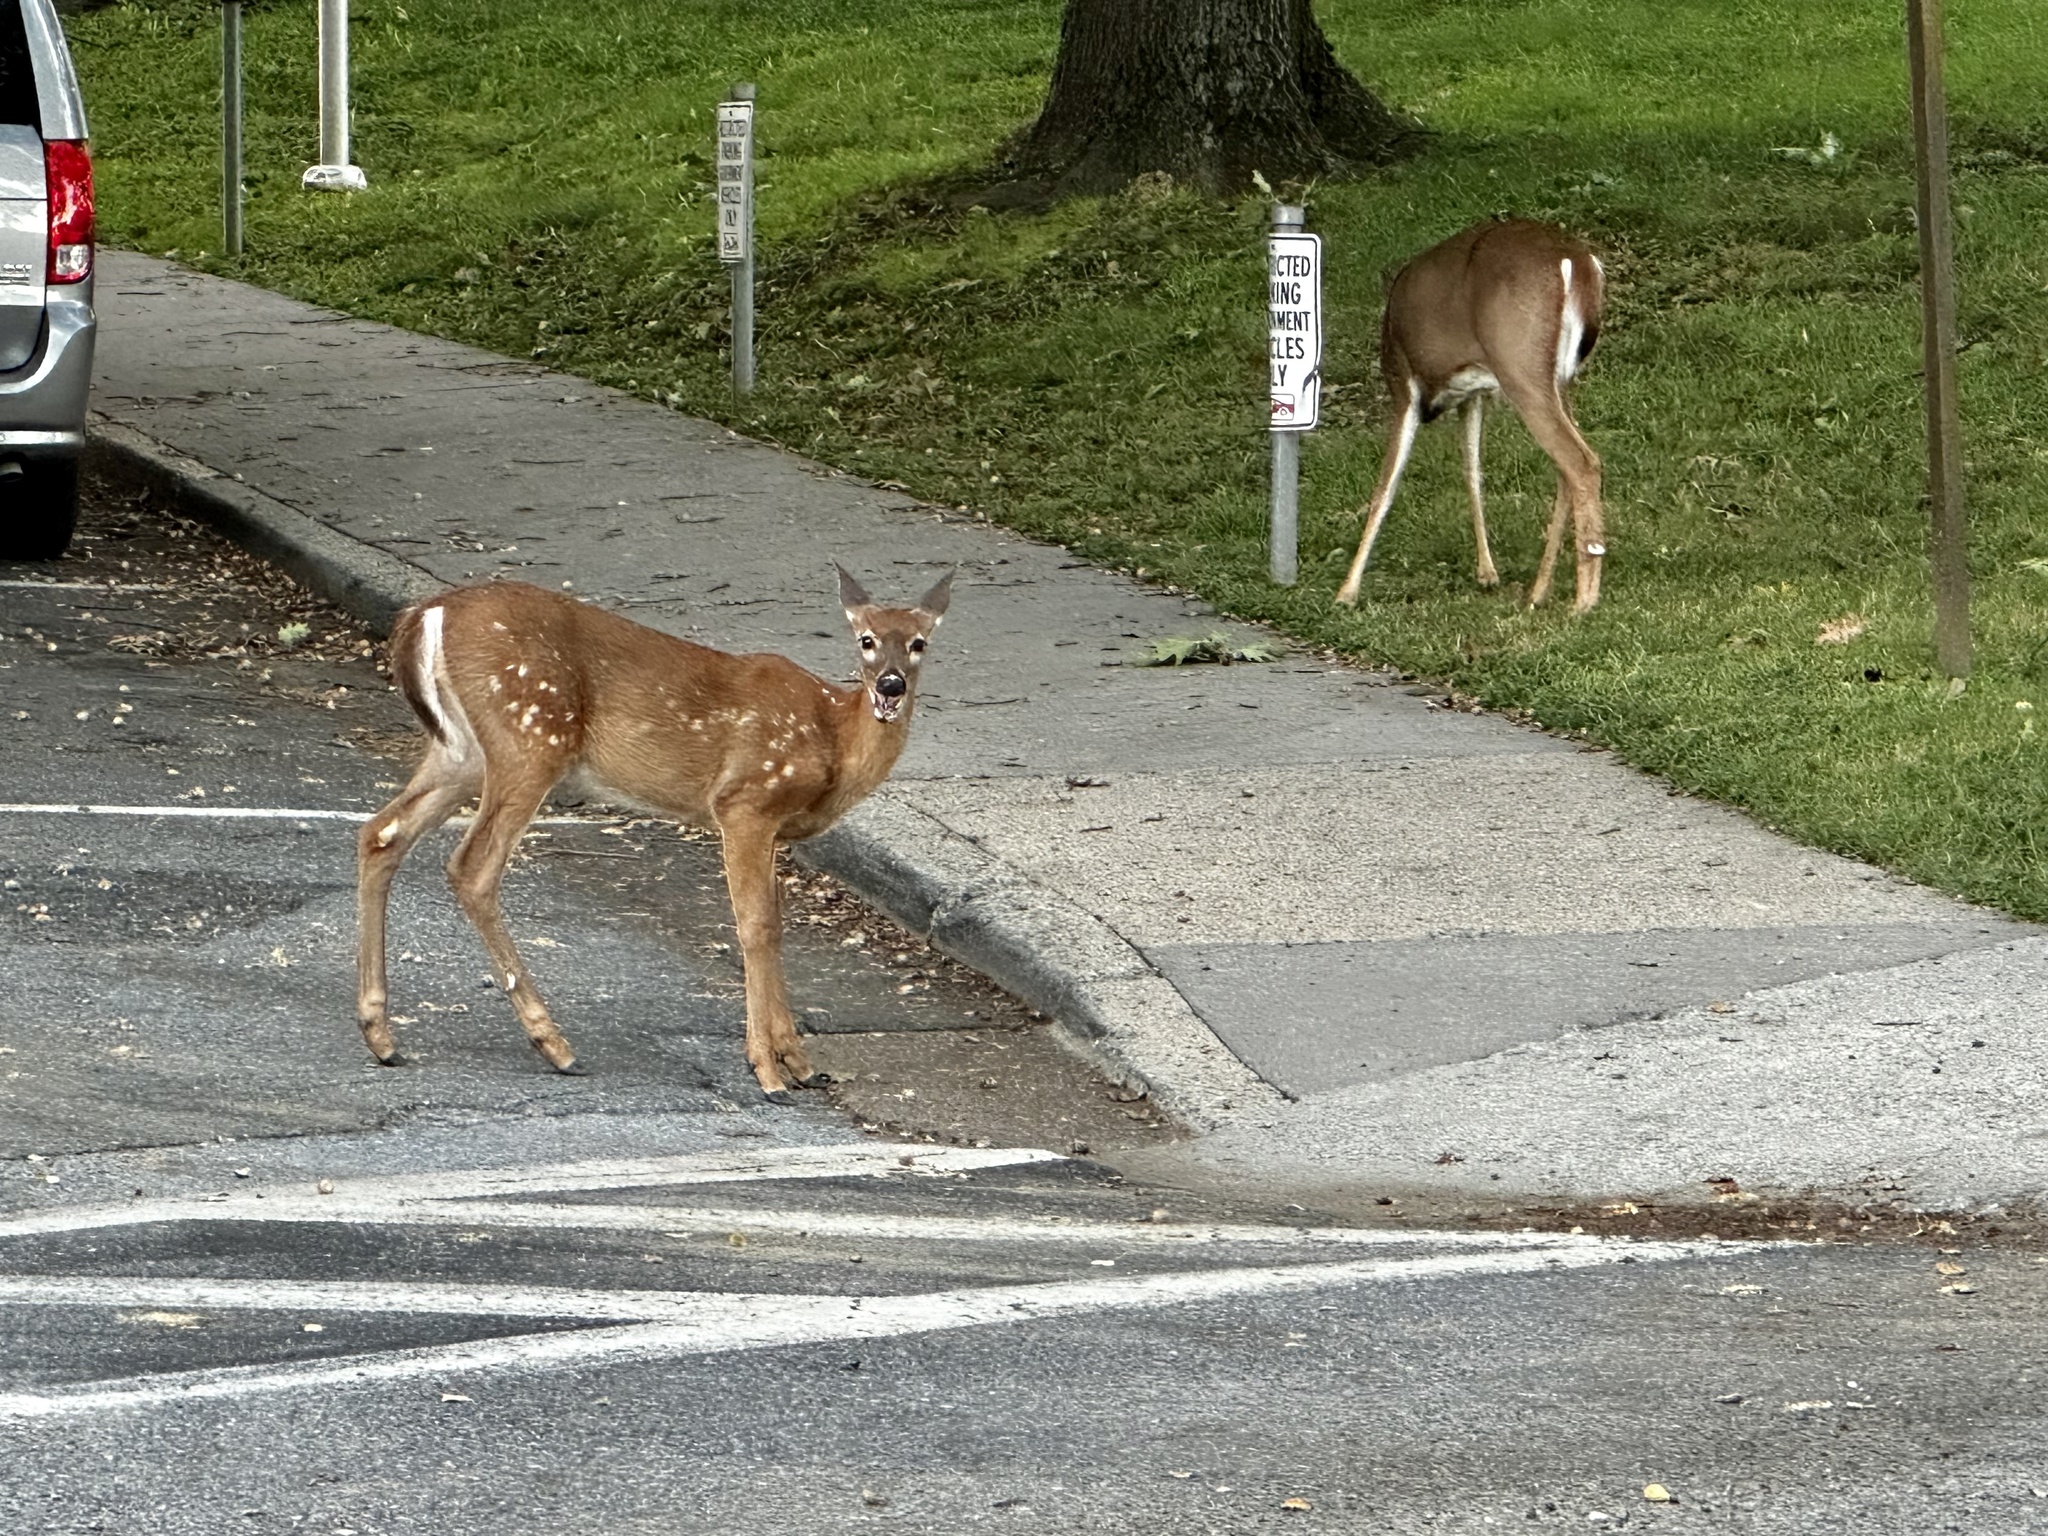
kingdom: Animalia
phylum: Chordata
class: Mammalia
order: Artiodactyla
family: Cervidae
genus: Odocoileus
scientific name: Odocoileus virginianus
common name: White-tailed deer
